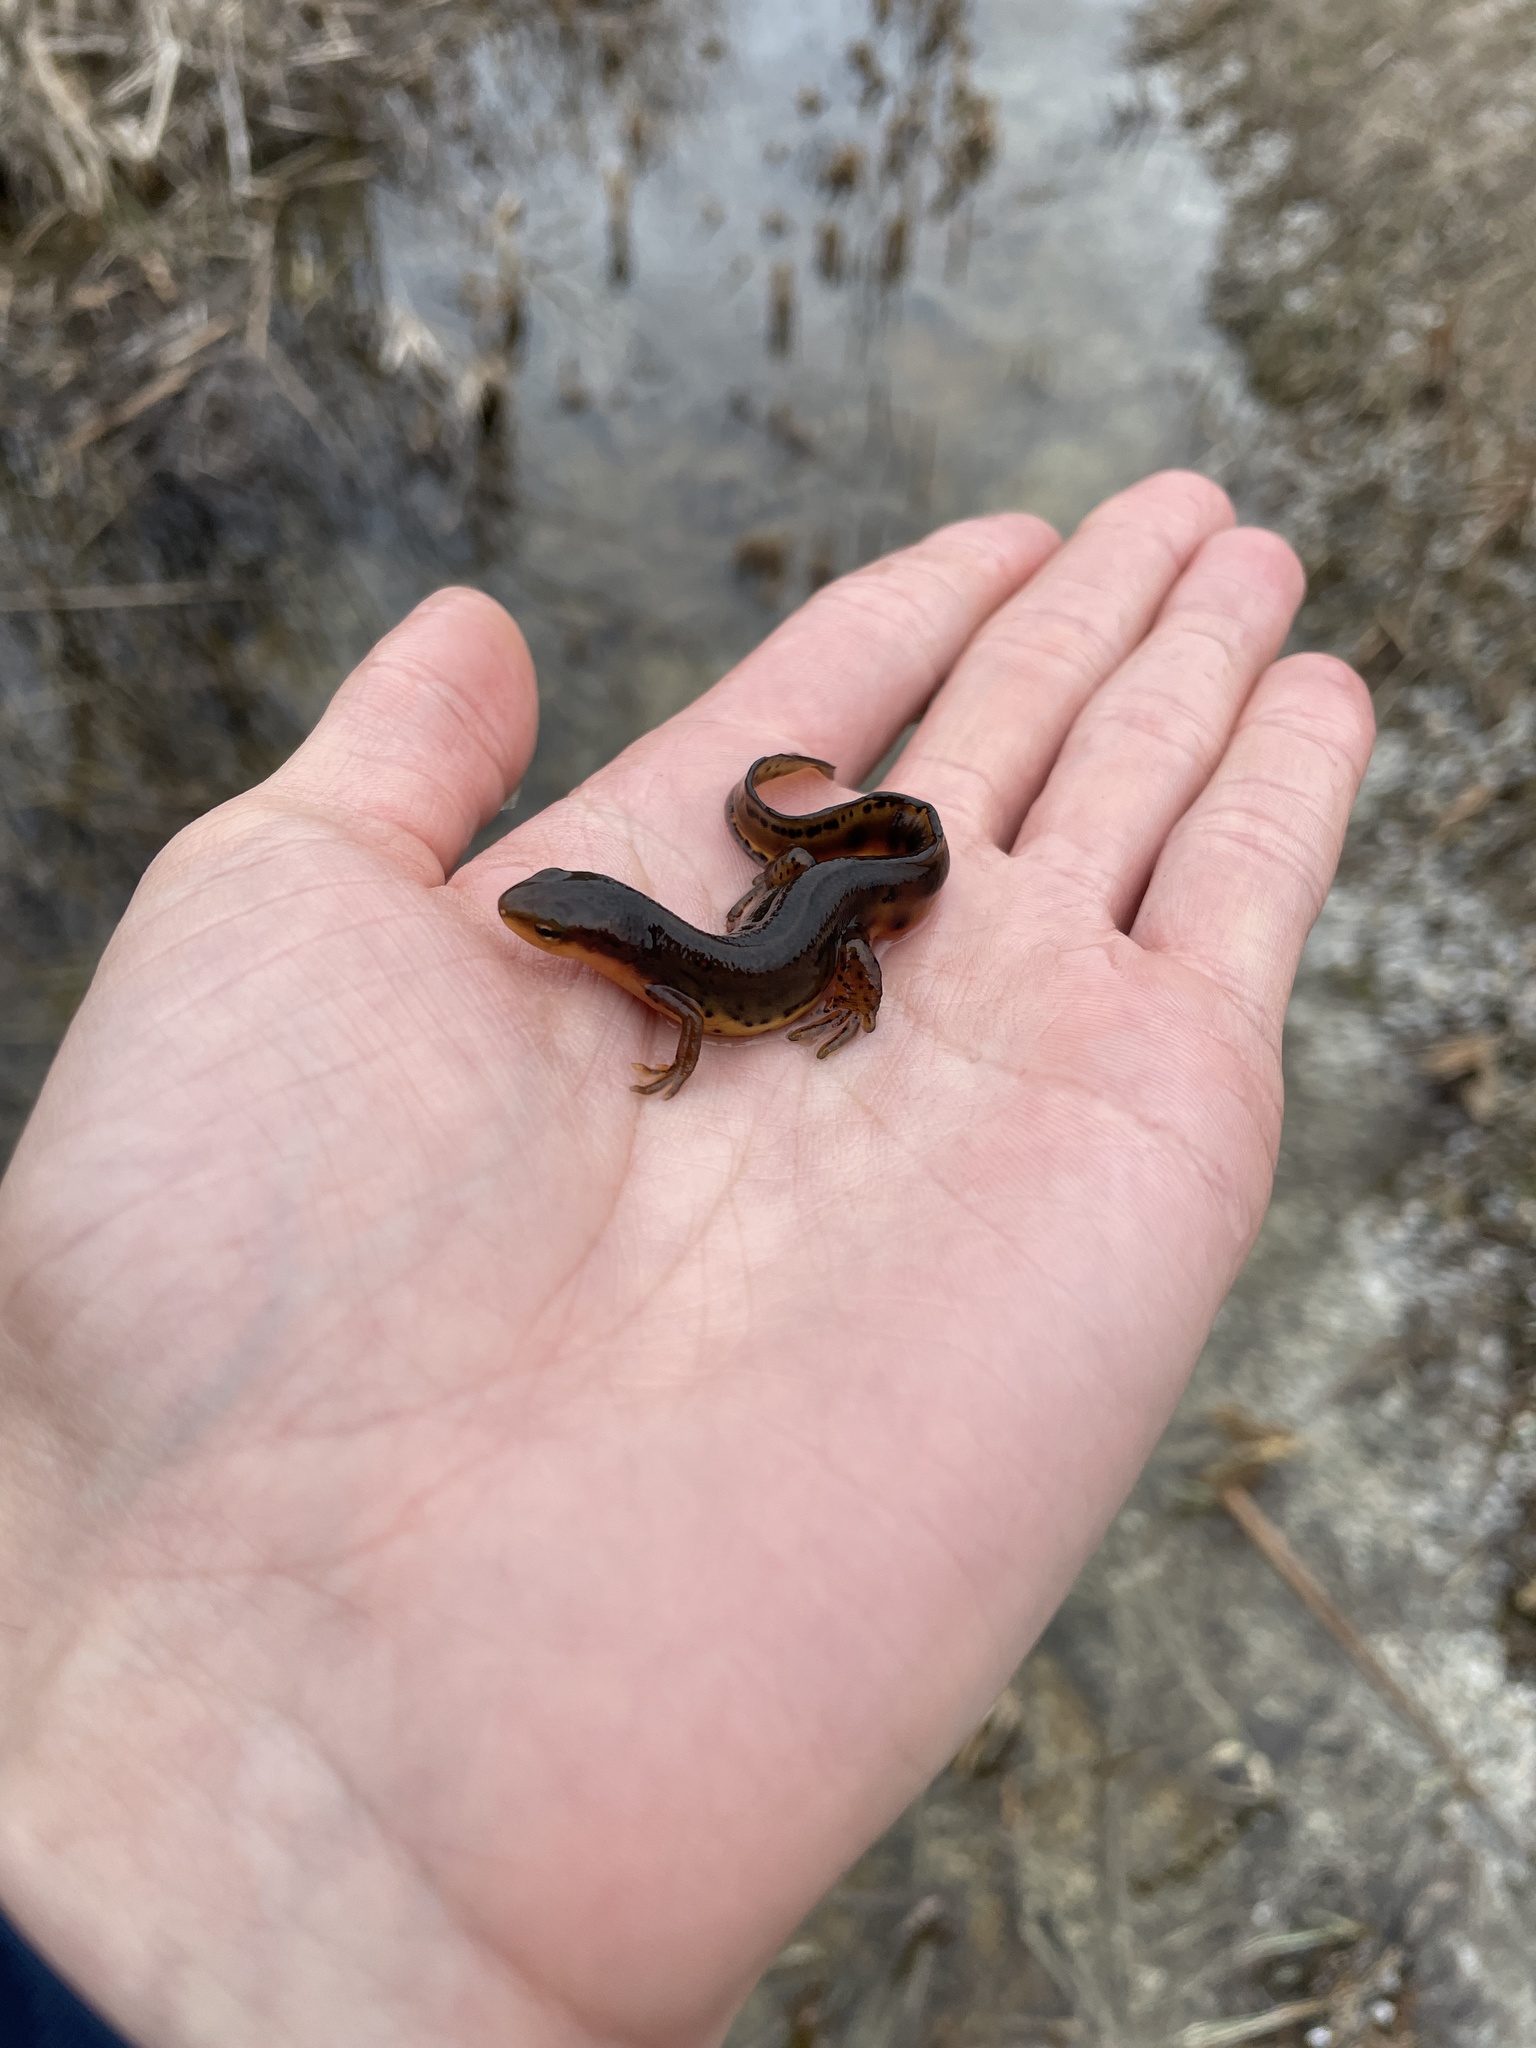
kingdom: Animalia
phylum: Chordata
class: Amphibia
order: Caudata
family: Salamandridae
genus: Notophthalmus
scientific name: Notophthalmus viridescens
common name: Eastern newt
